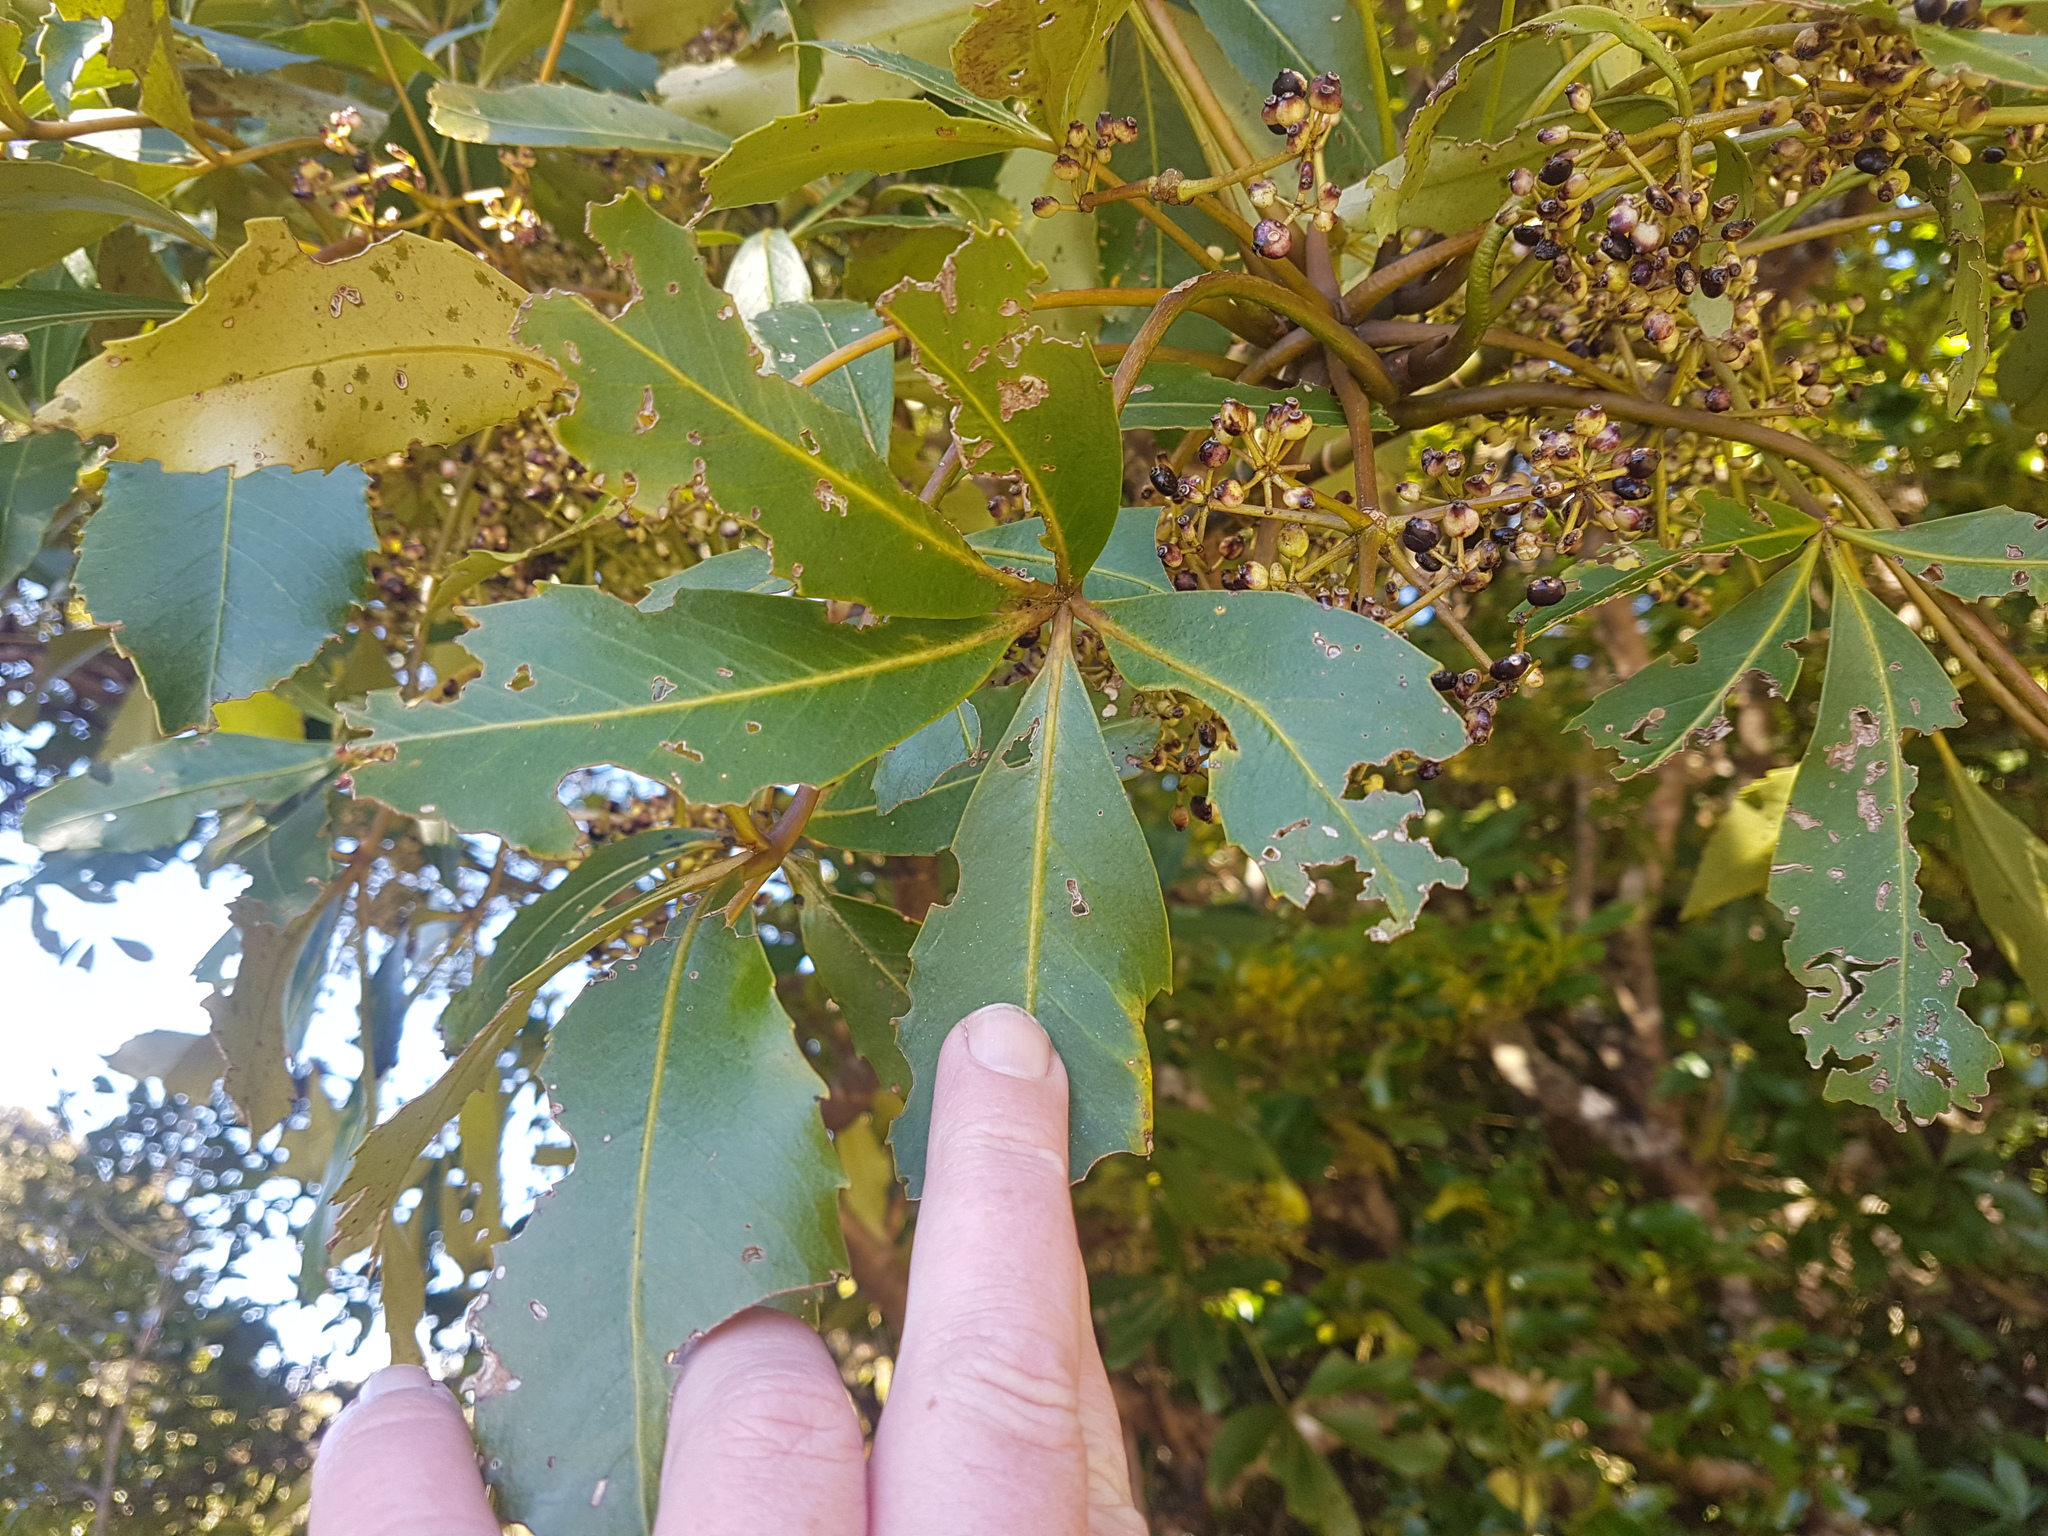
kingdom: Plantae
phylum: Tracheophyta
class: Magnoliopsida
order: Apiales
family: Araliaceae
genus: Neopanax
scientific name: Neopanax colensoi
